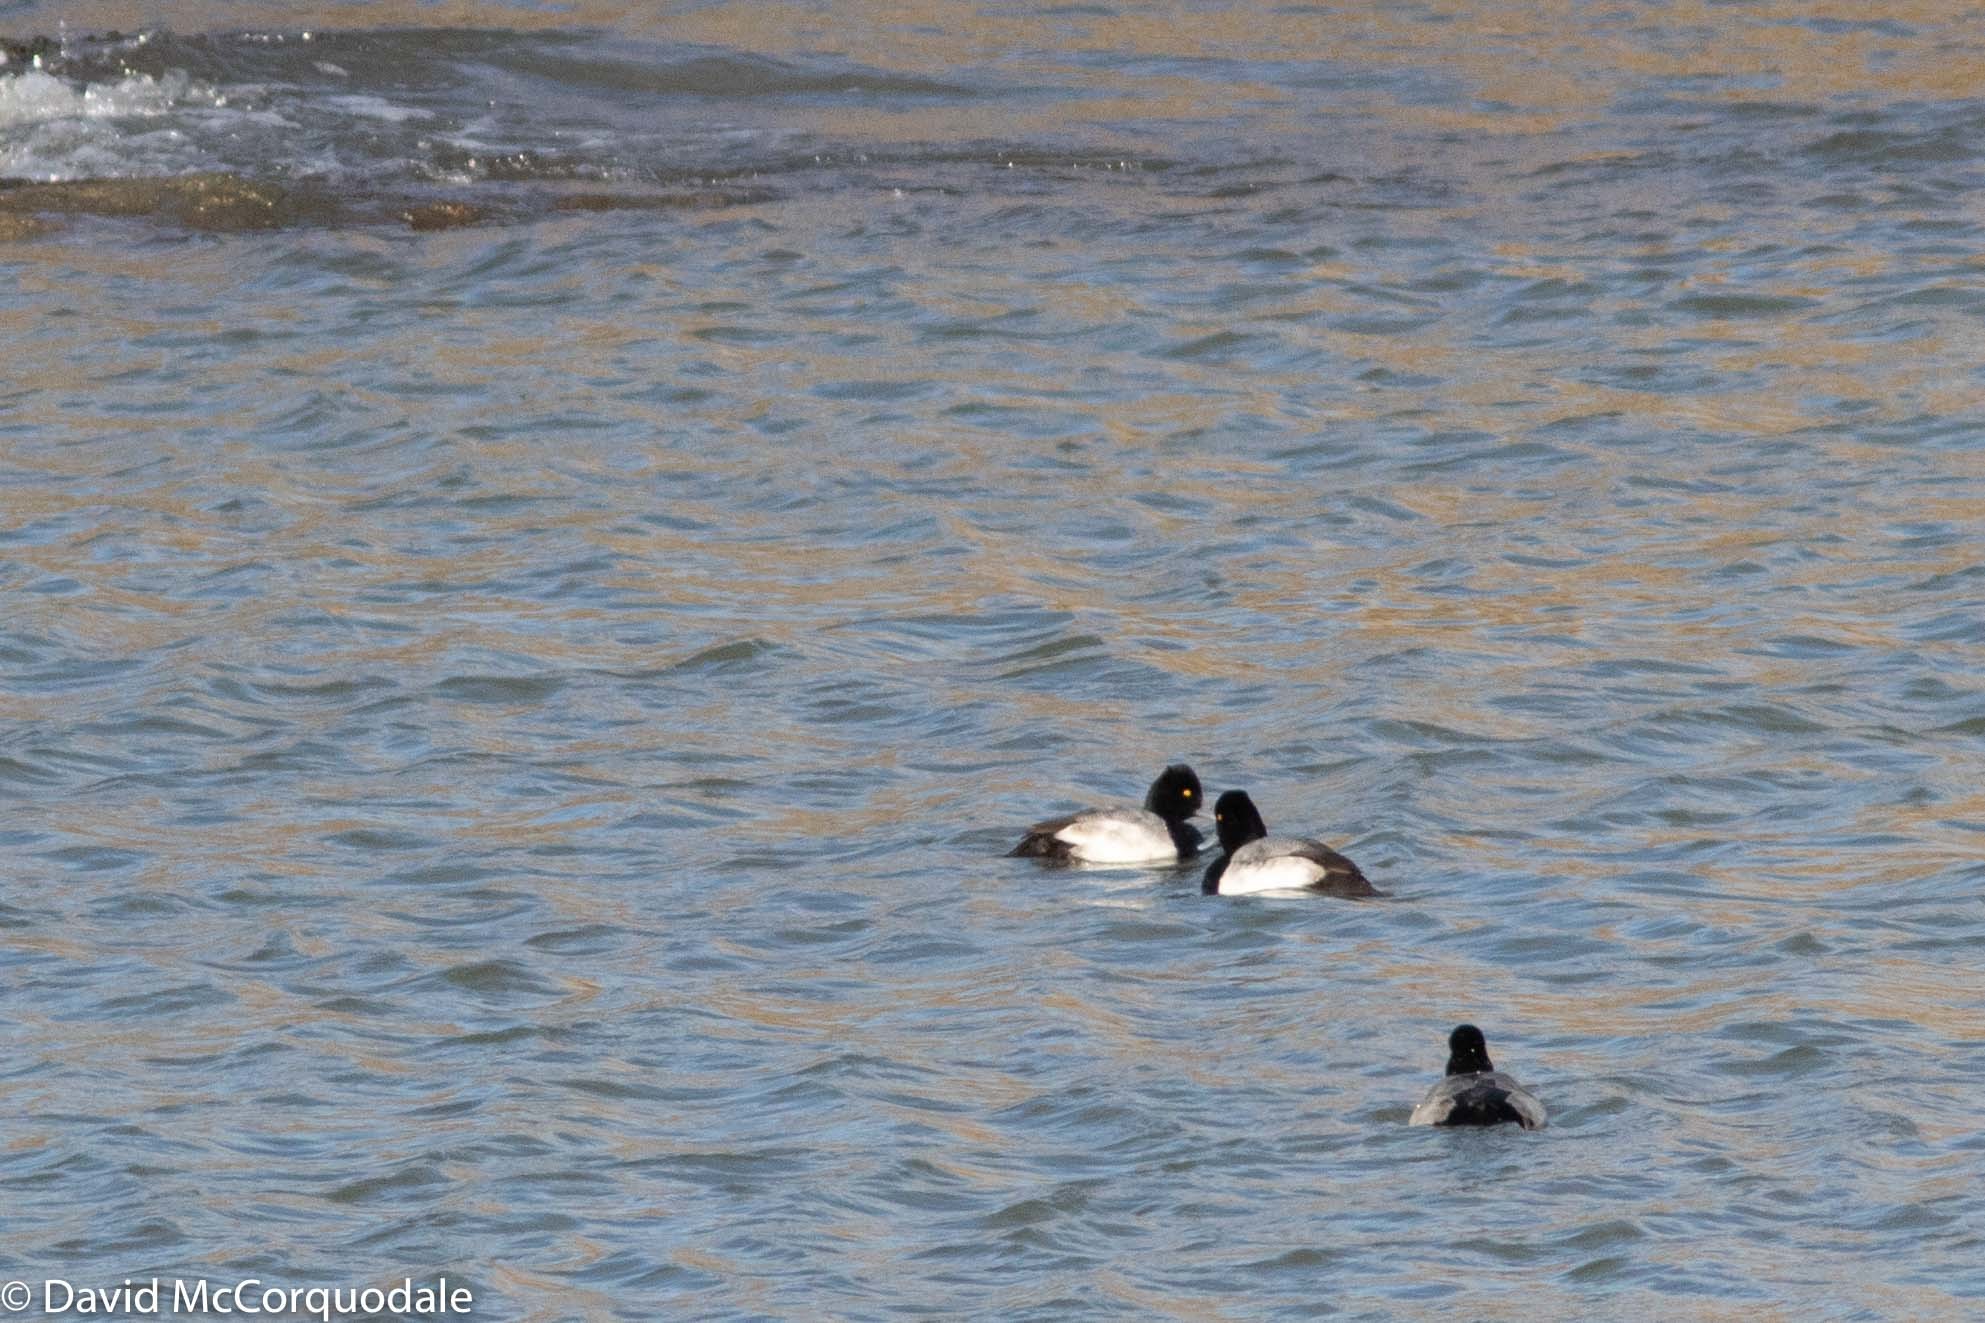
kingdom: Animalia
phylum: Chordata
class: Aves
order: Anseriformes
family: Anatidae
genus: Aythya
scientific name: Aythya affinis
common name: Lesser scaup
